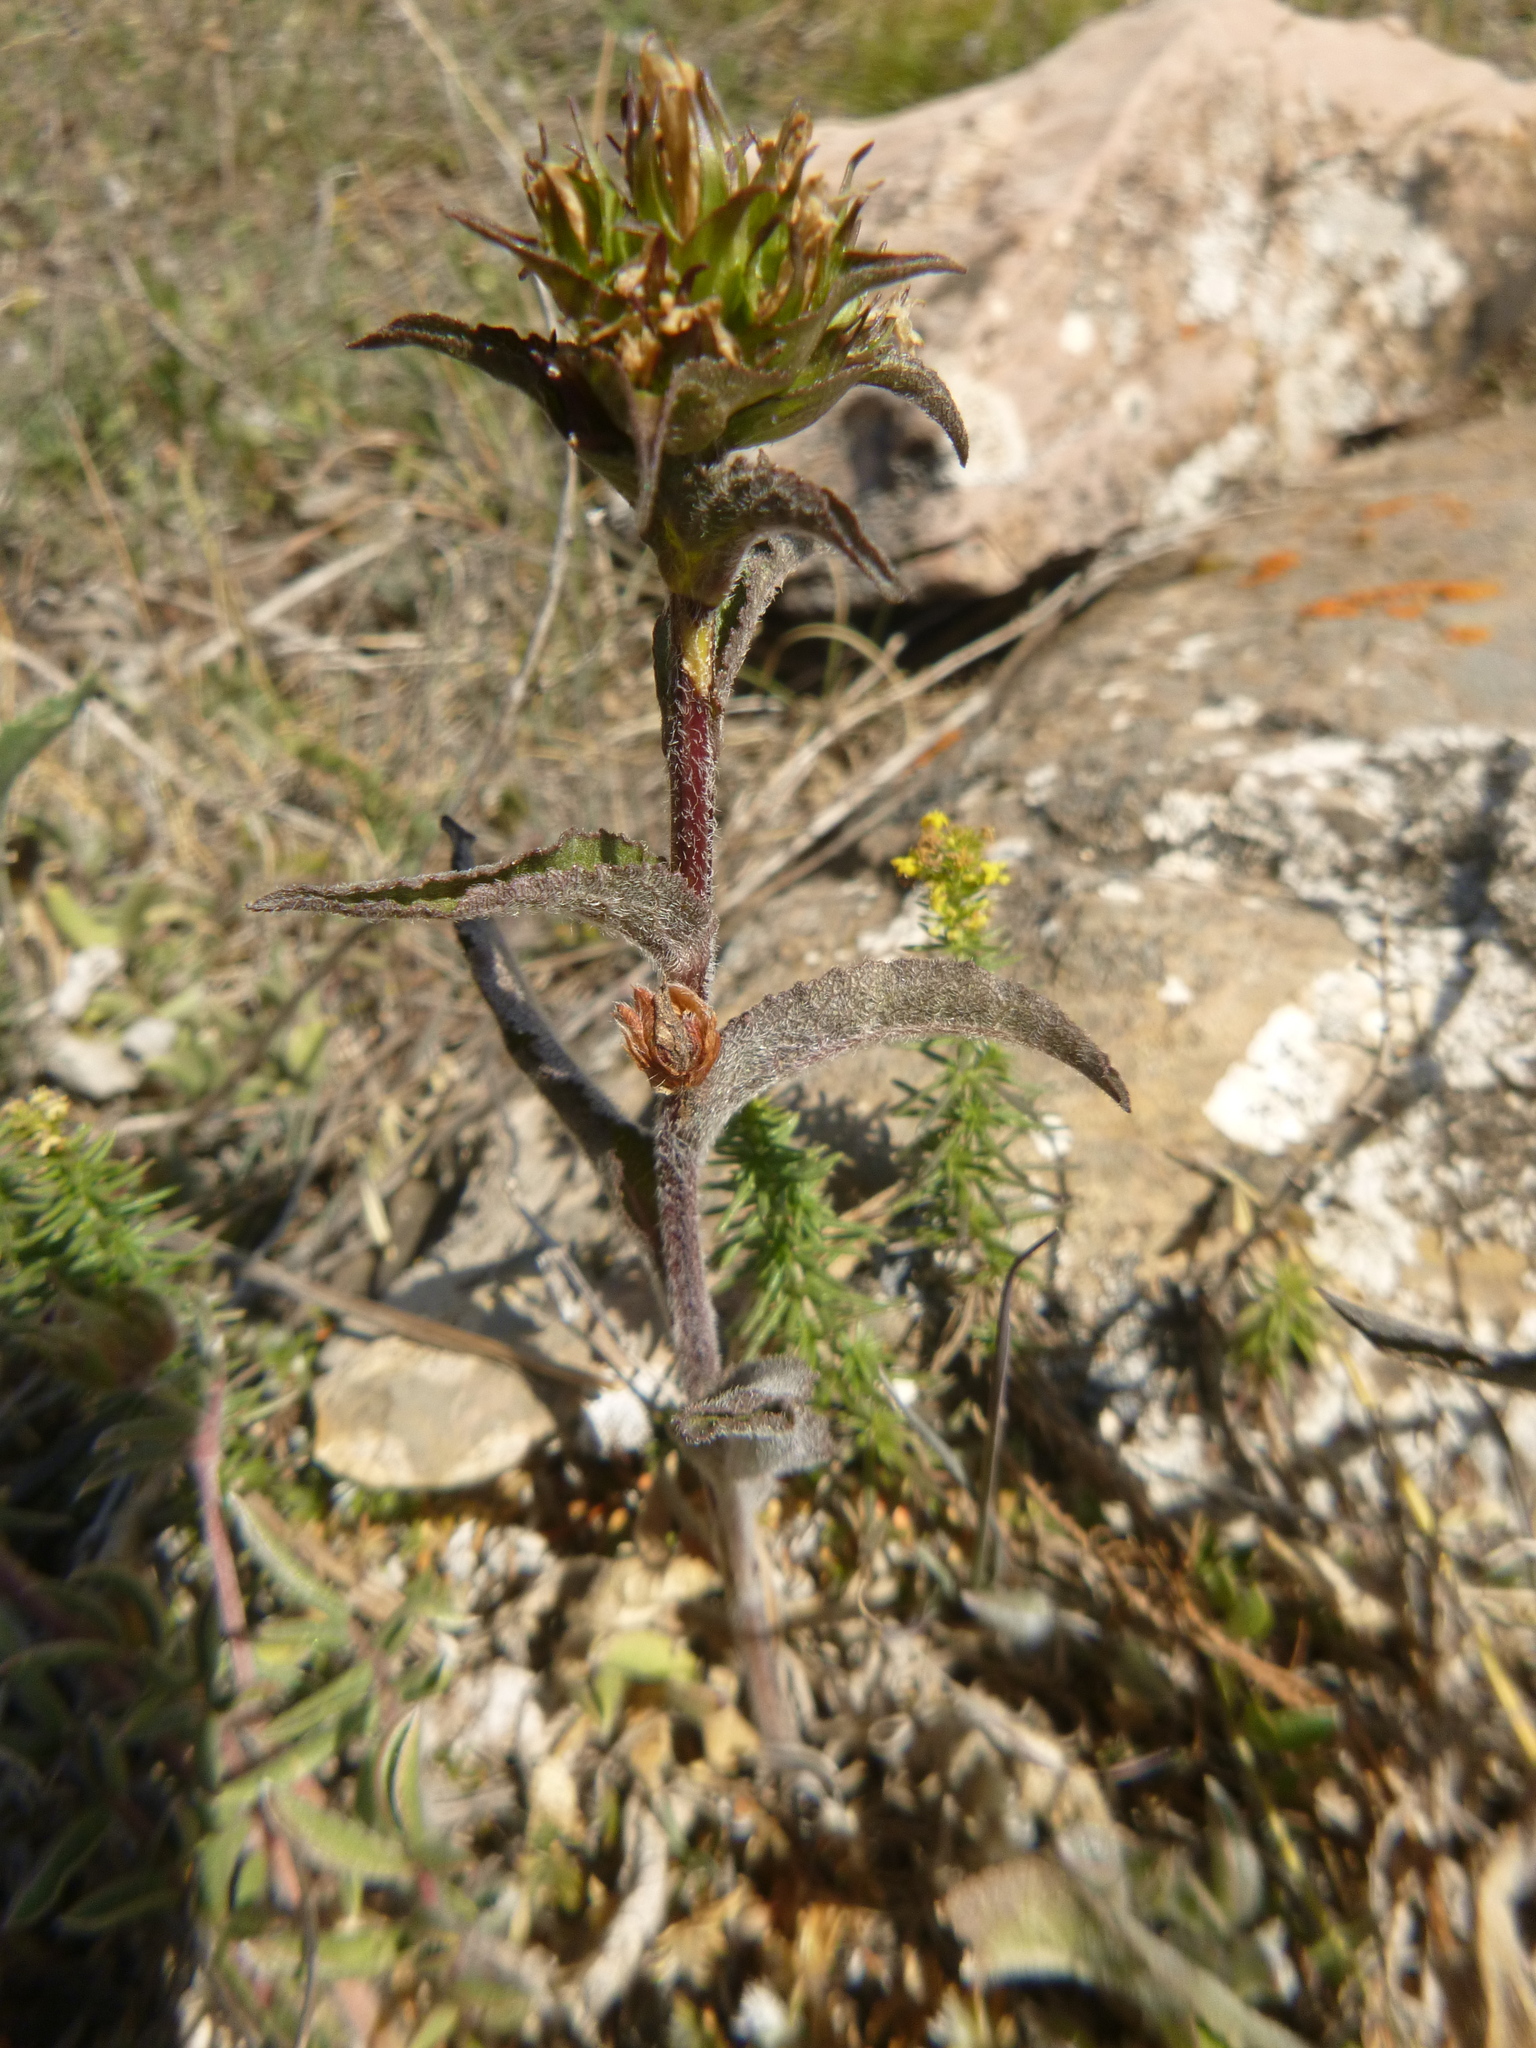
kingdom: Plantae
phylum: Tracheophyta
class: Magnoliopsida
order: Asterales
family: Campanulaceae
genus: Campanula
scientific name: Campanula glomerata
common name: Clustered bellflower
